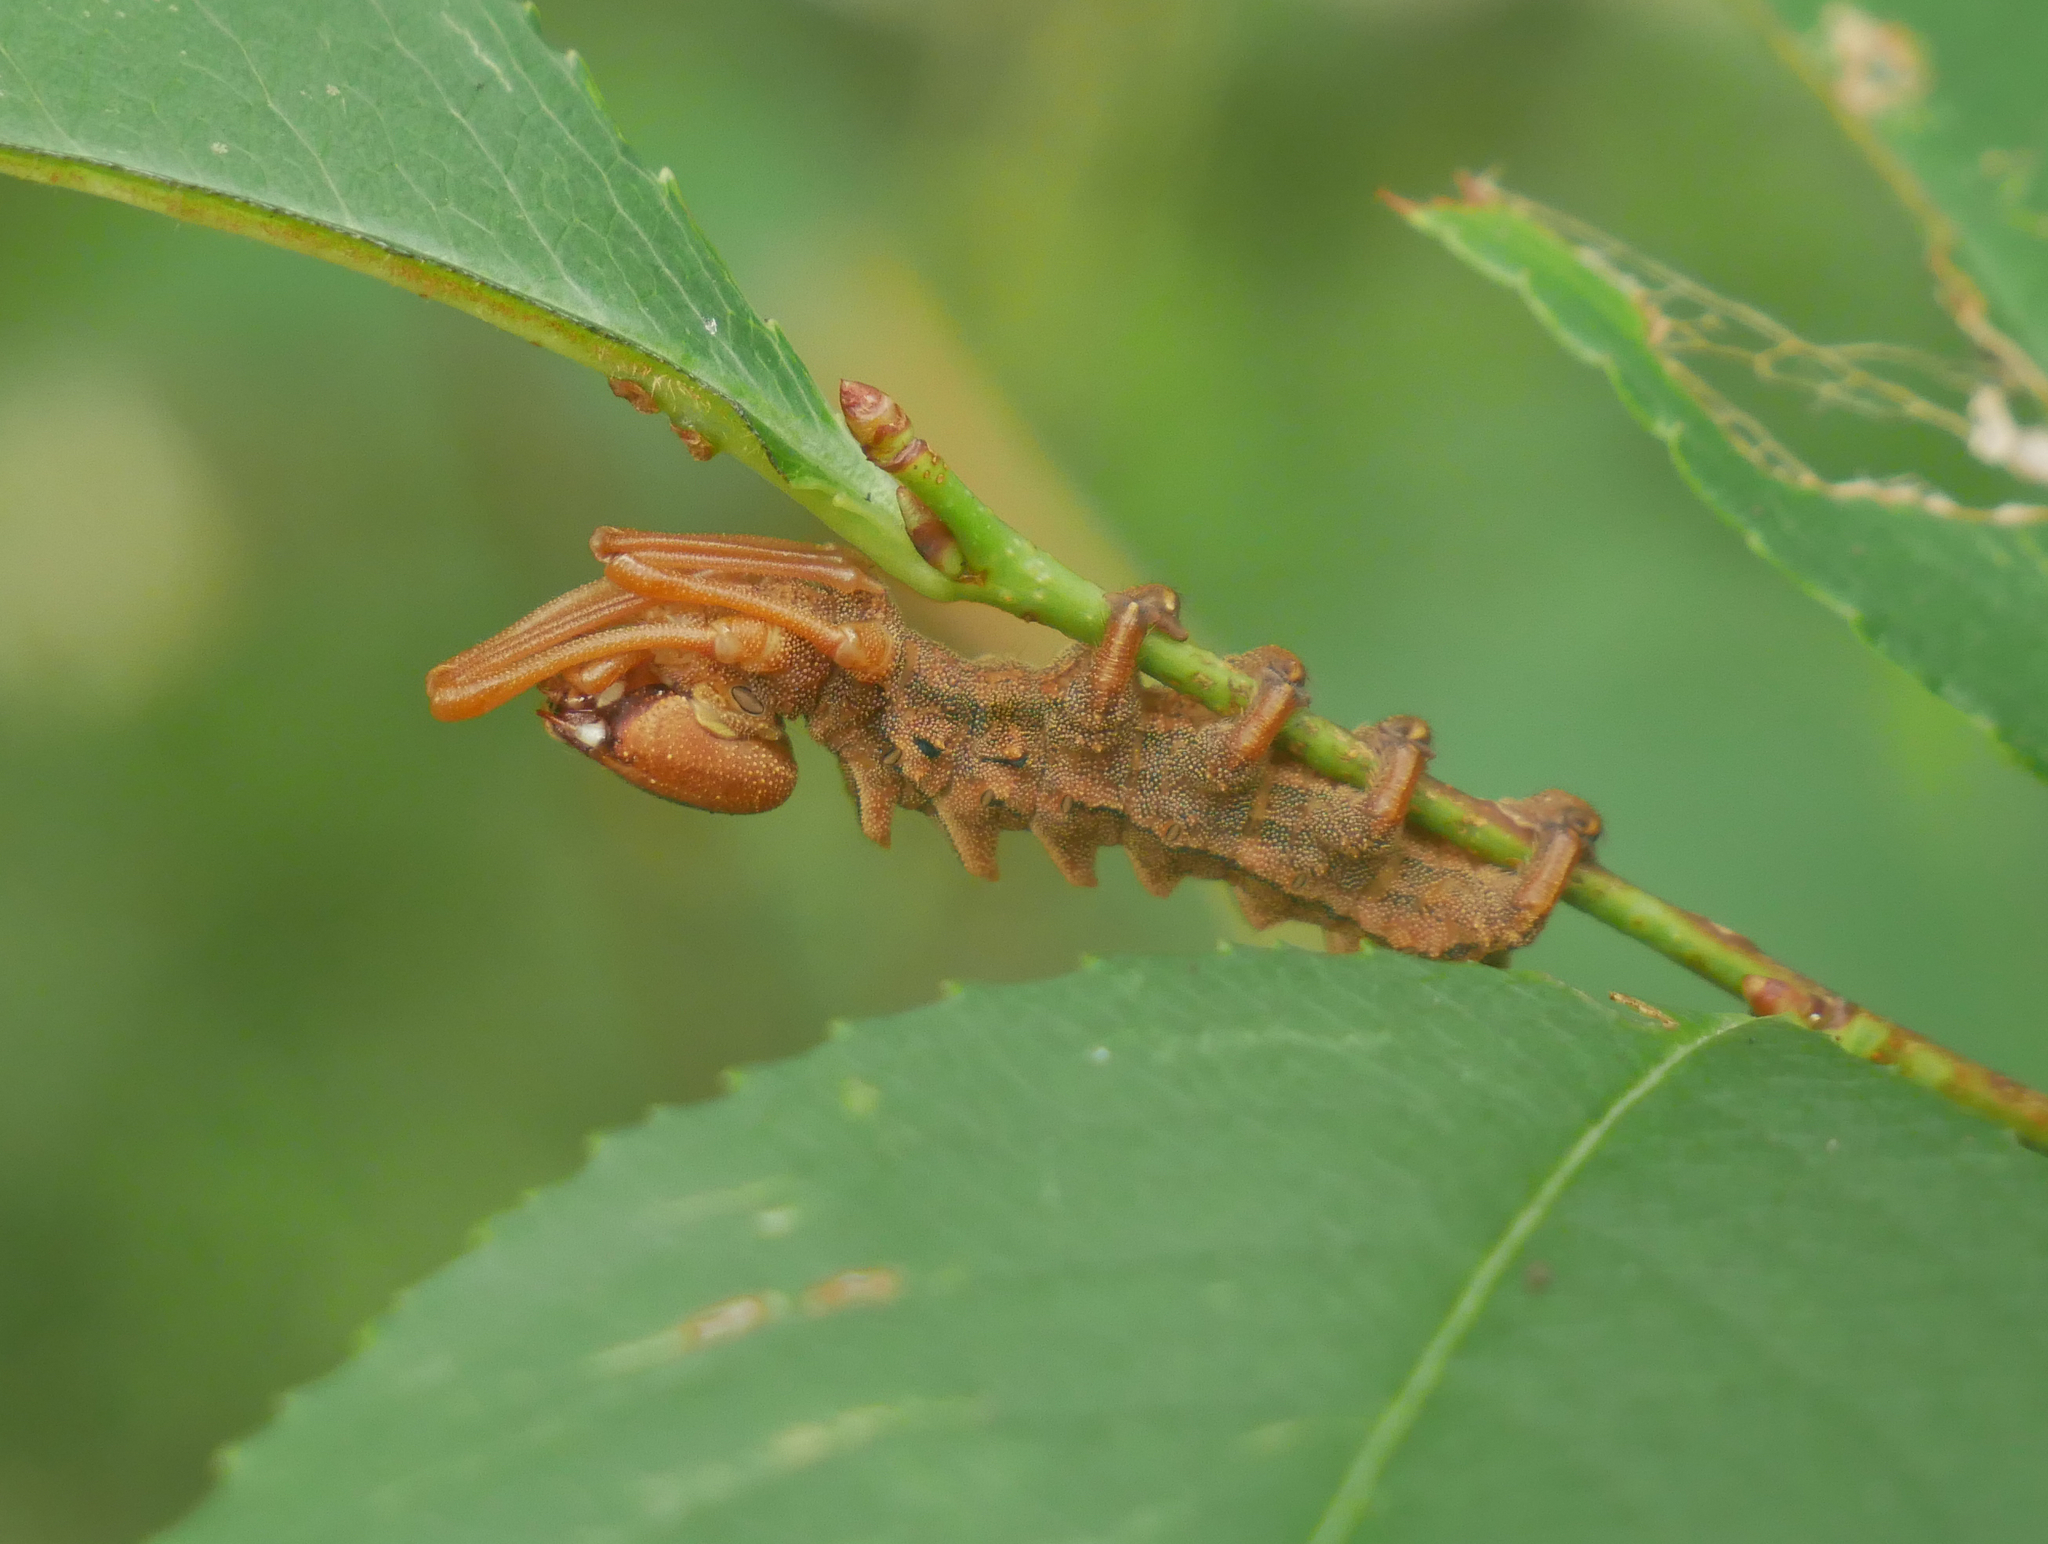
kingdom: Animalia
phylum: Arthropoda
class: Insecta
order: Lepidoptera
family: Notodontidae
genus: Stauropus
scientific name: Stauropus fagi
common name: Lobster moth
